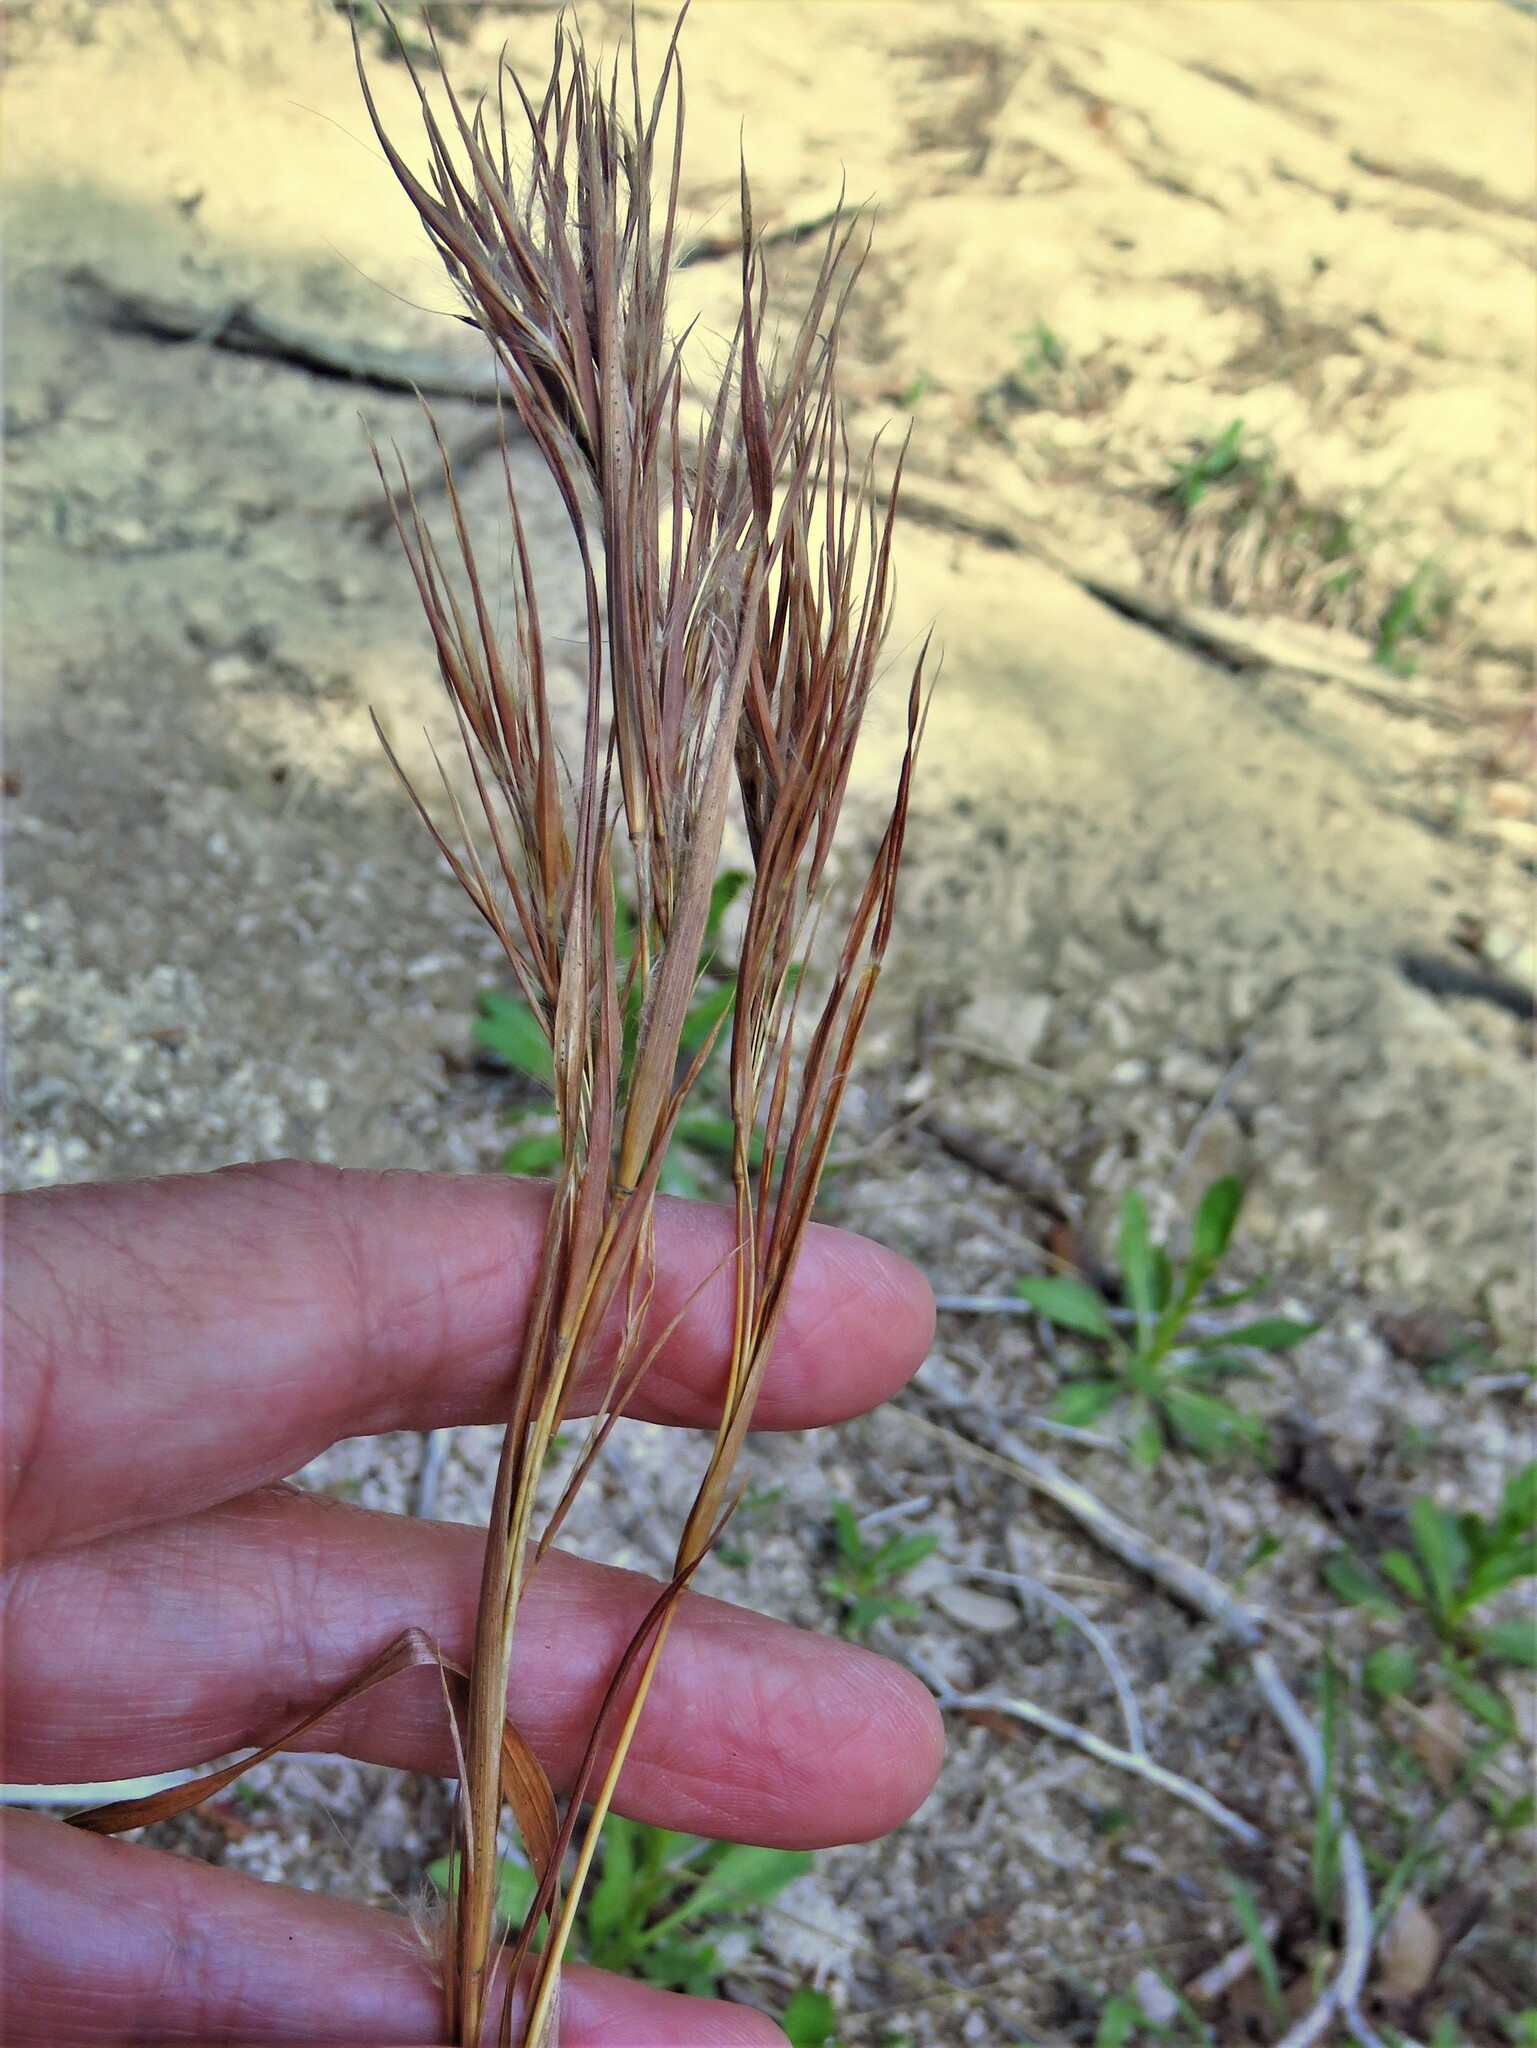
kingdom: Plantae
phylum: Tracheophyta
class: Liliopsida
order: Poales
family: Poaceae
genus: Andropogon
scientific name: Andropogon tenuispatheus
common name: Bushy bluestem
